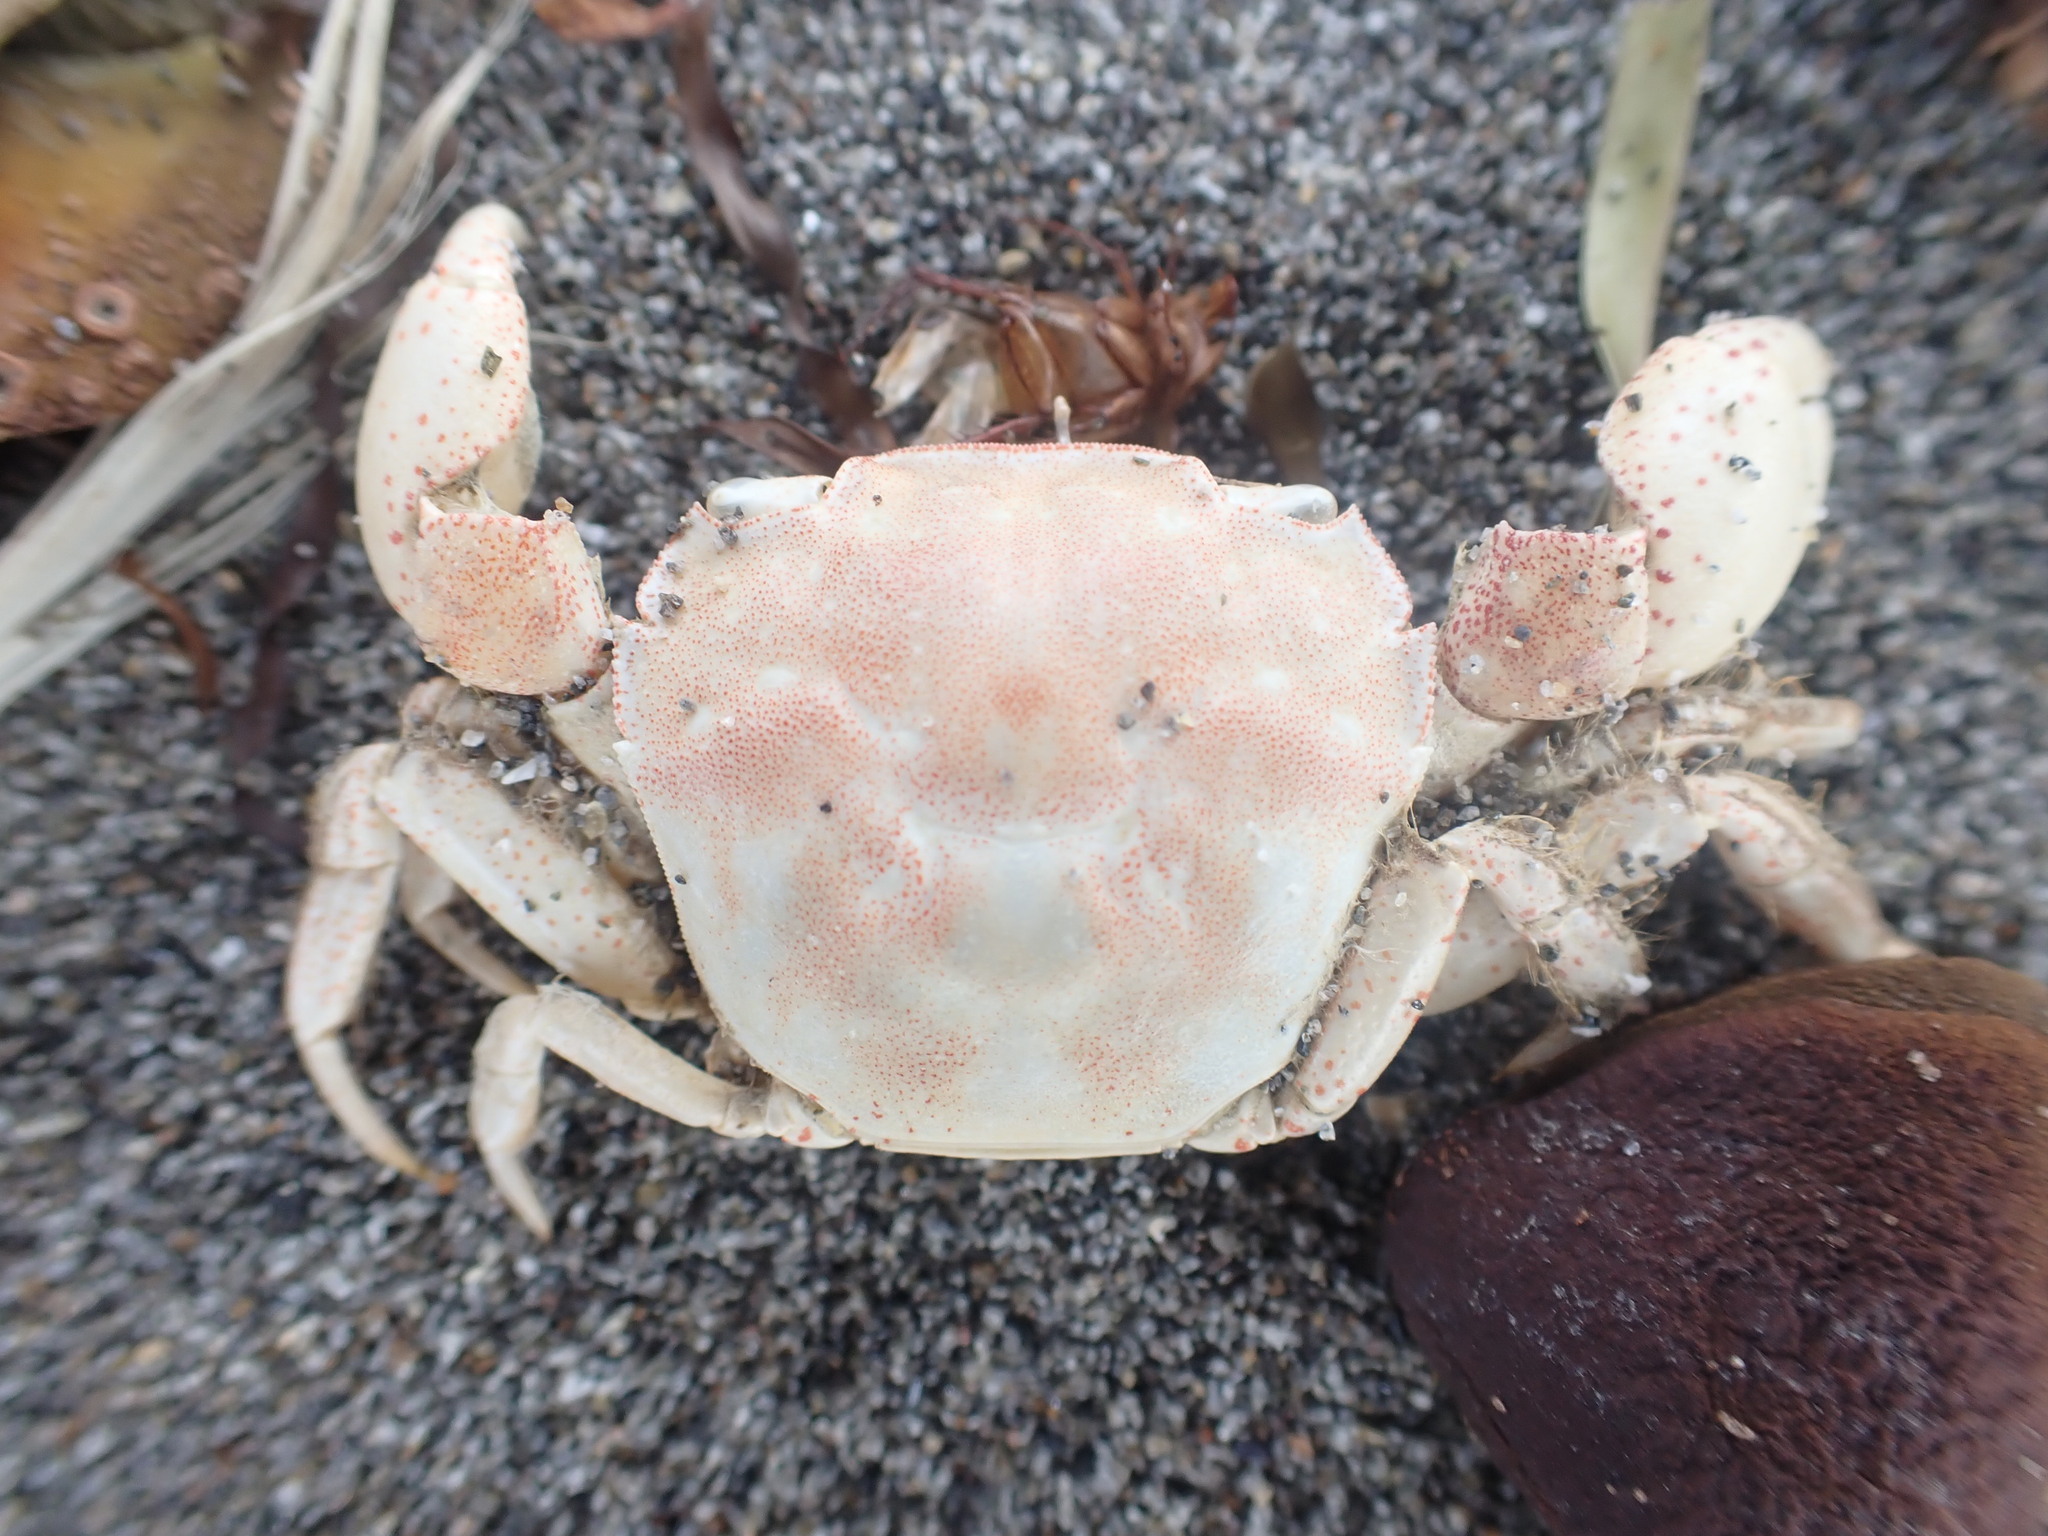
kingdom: Animalia
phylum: Arthropoda
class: Malacostraca
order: Decapoda
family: Varunidae
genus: Hemigrapsus
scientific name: Hemigrapsus crenulatus
